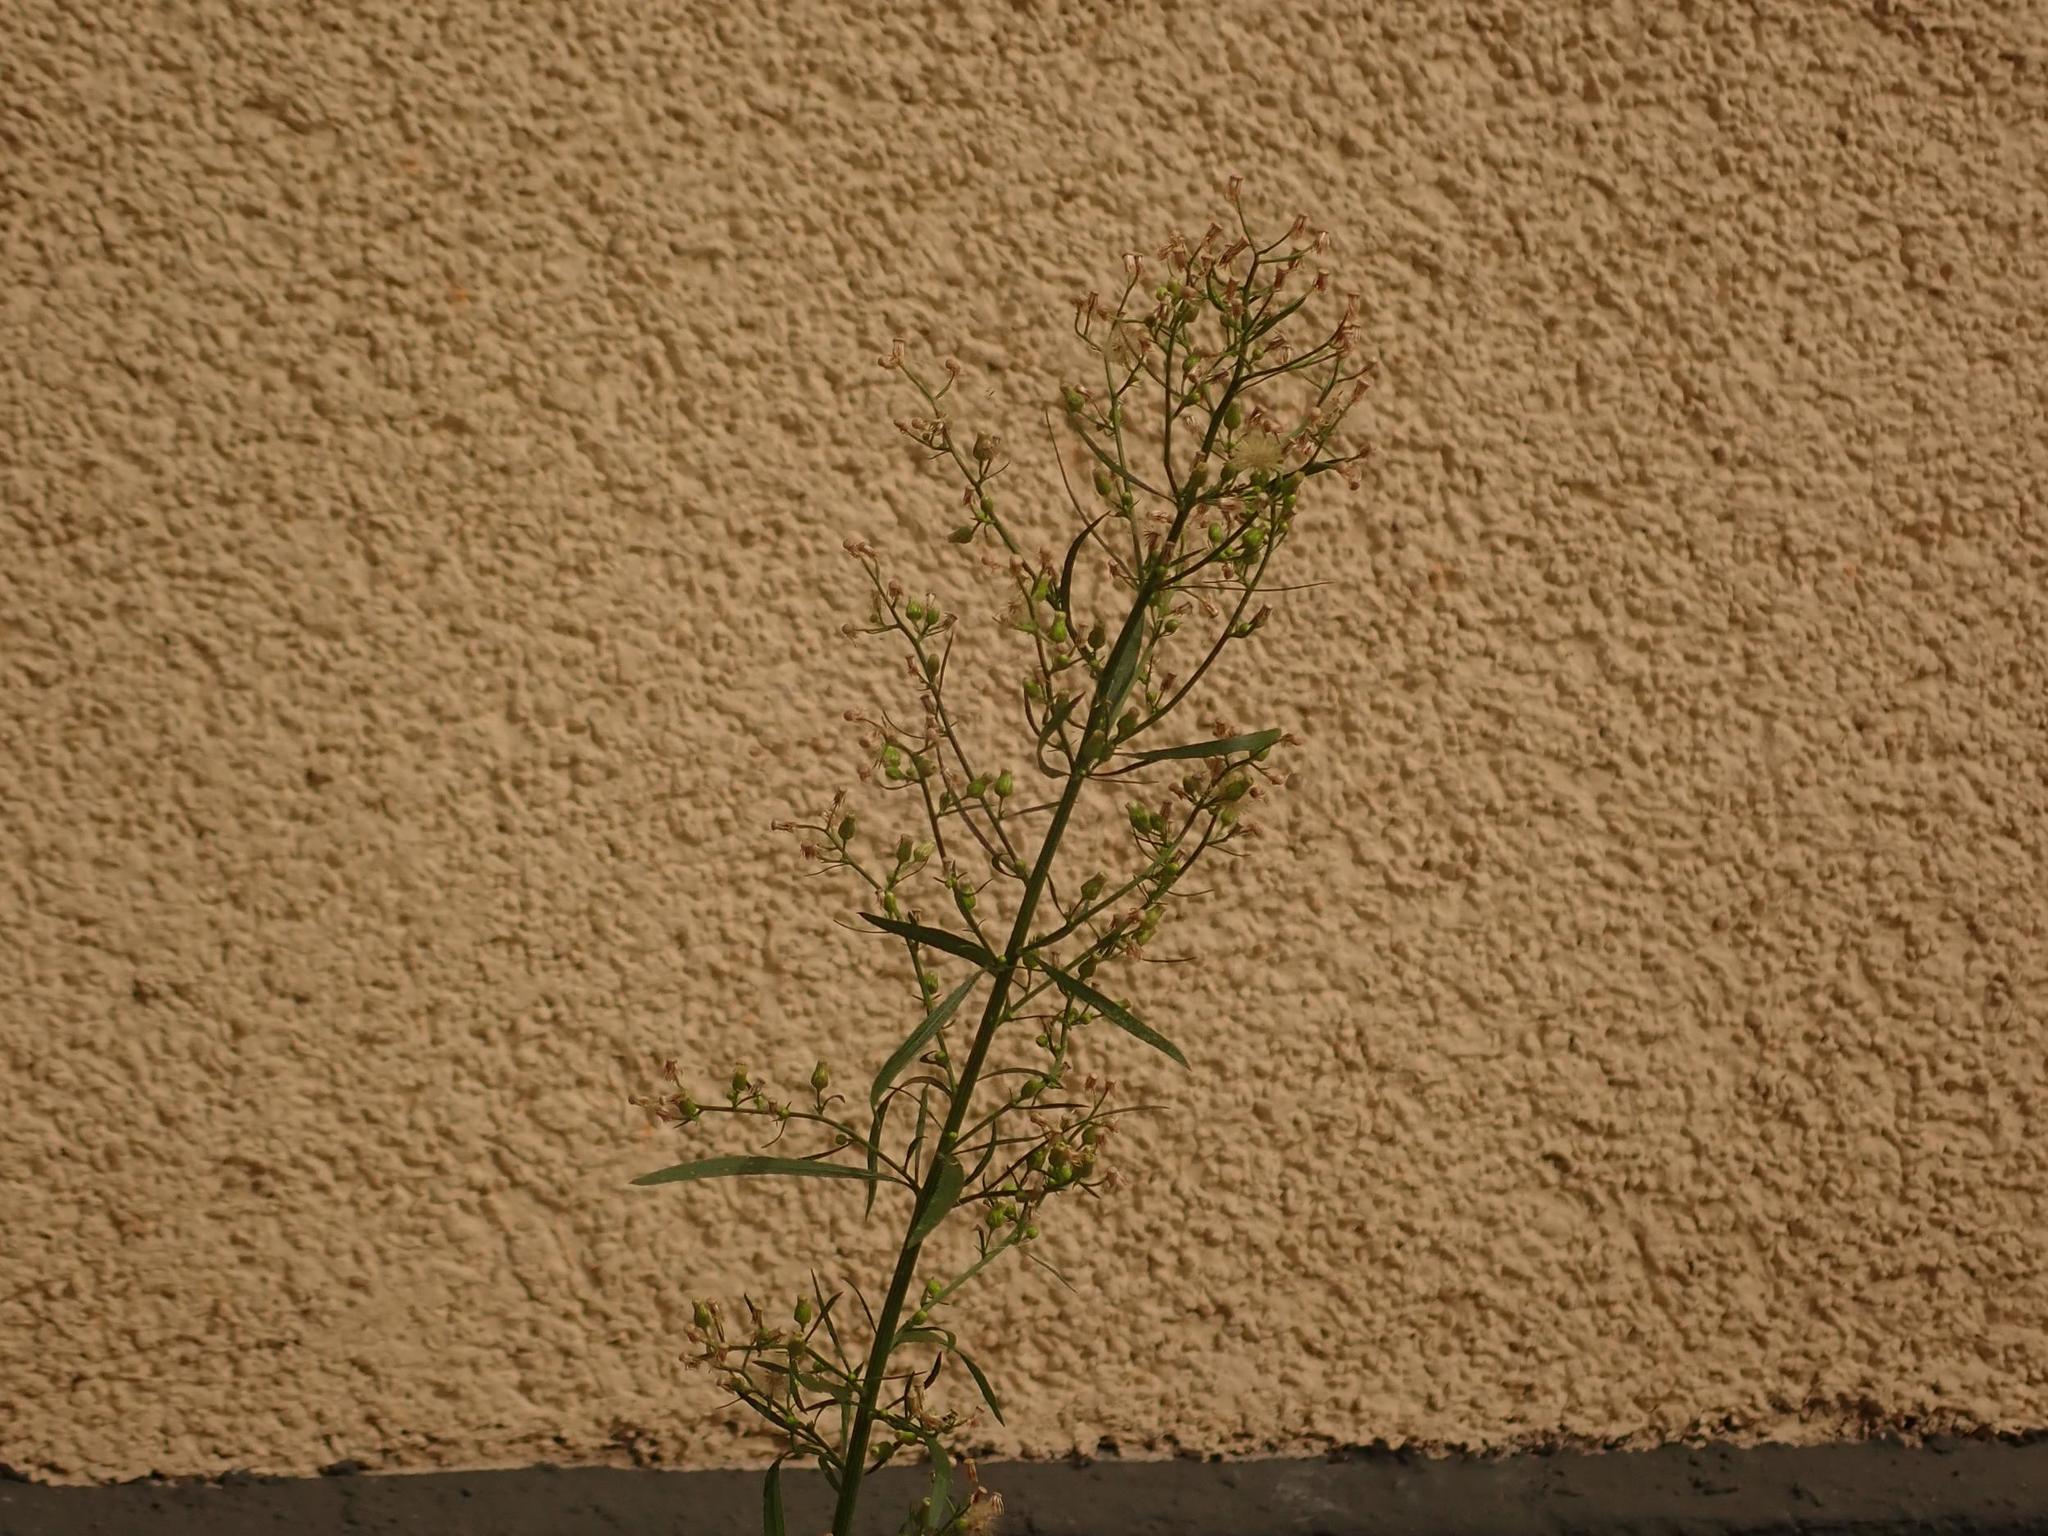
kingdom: Plantae
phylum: Tracheophyta
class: Magnoliopsida
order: Asterales
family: Asteraceae
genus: Erigeron
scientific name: Erigeron canadensis
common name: Canadian fleabane
